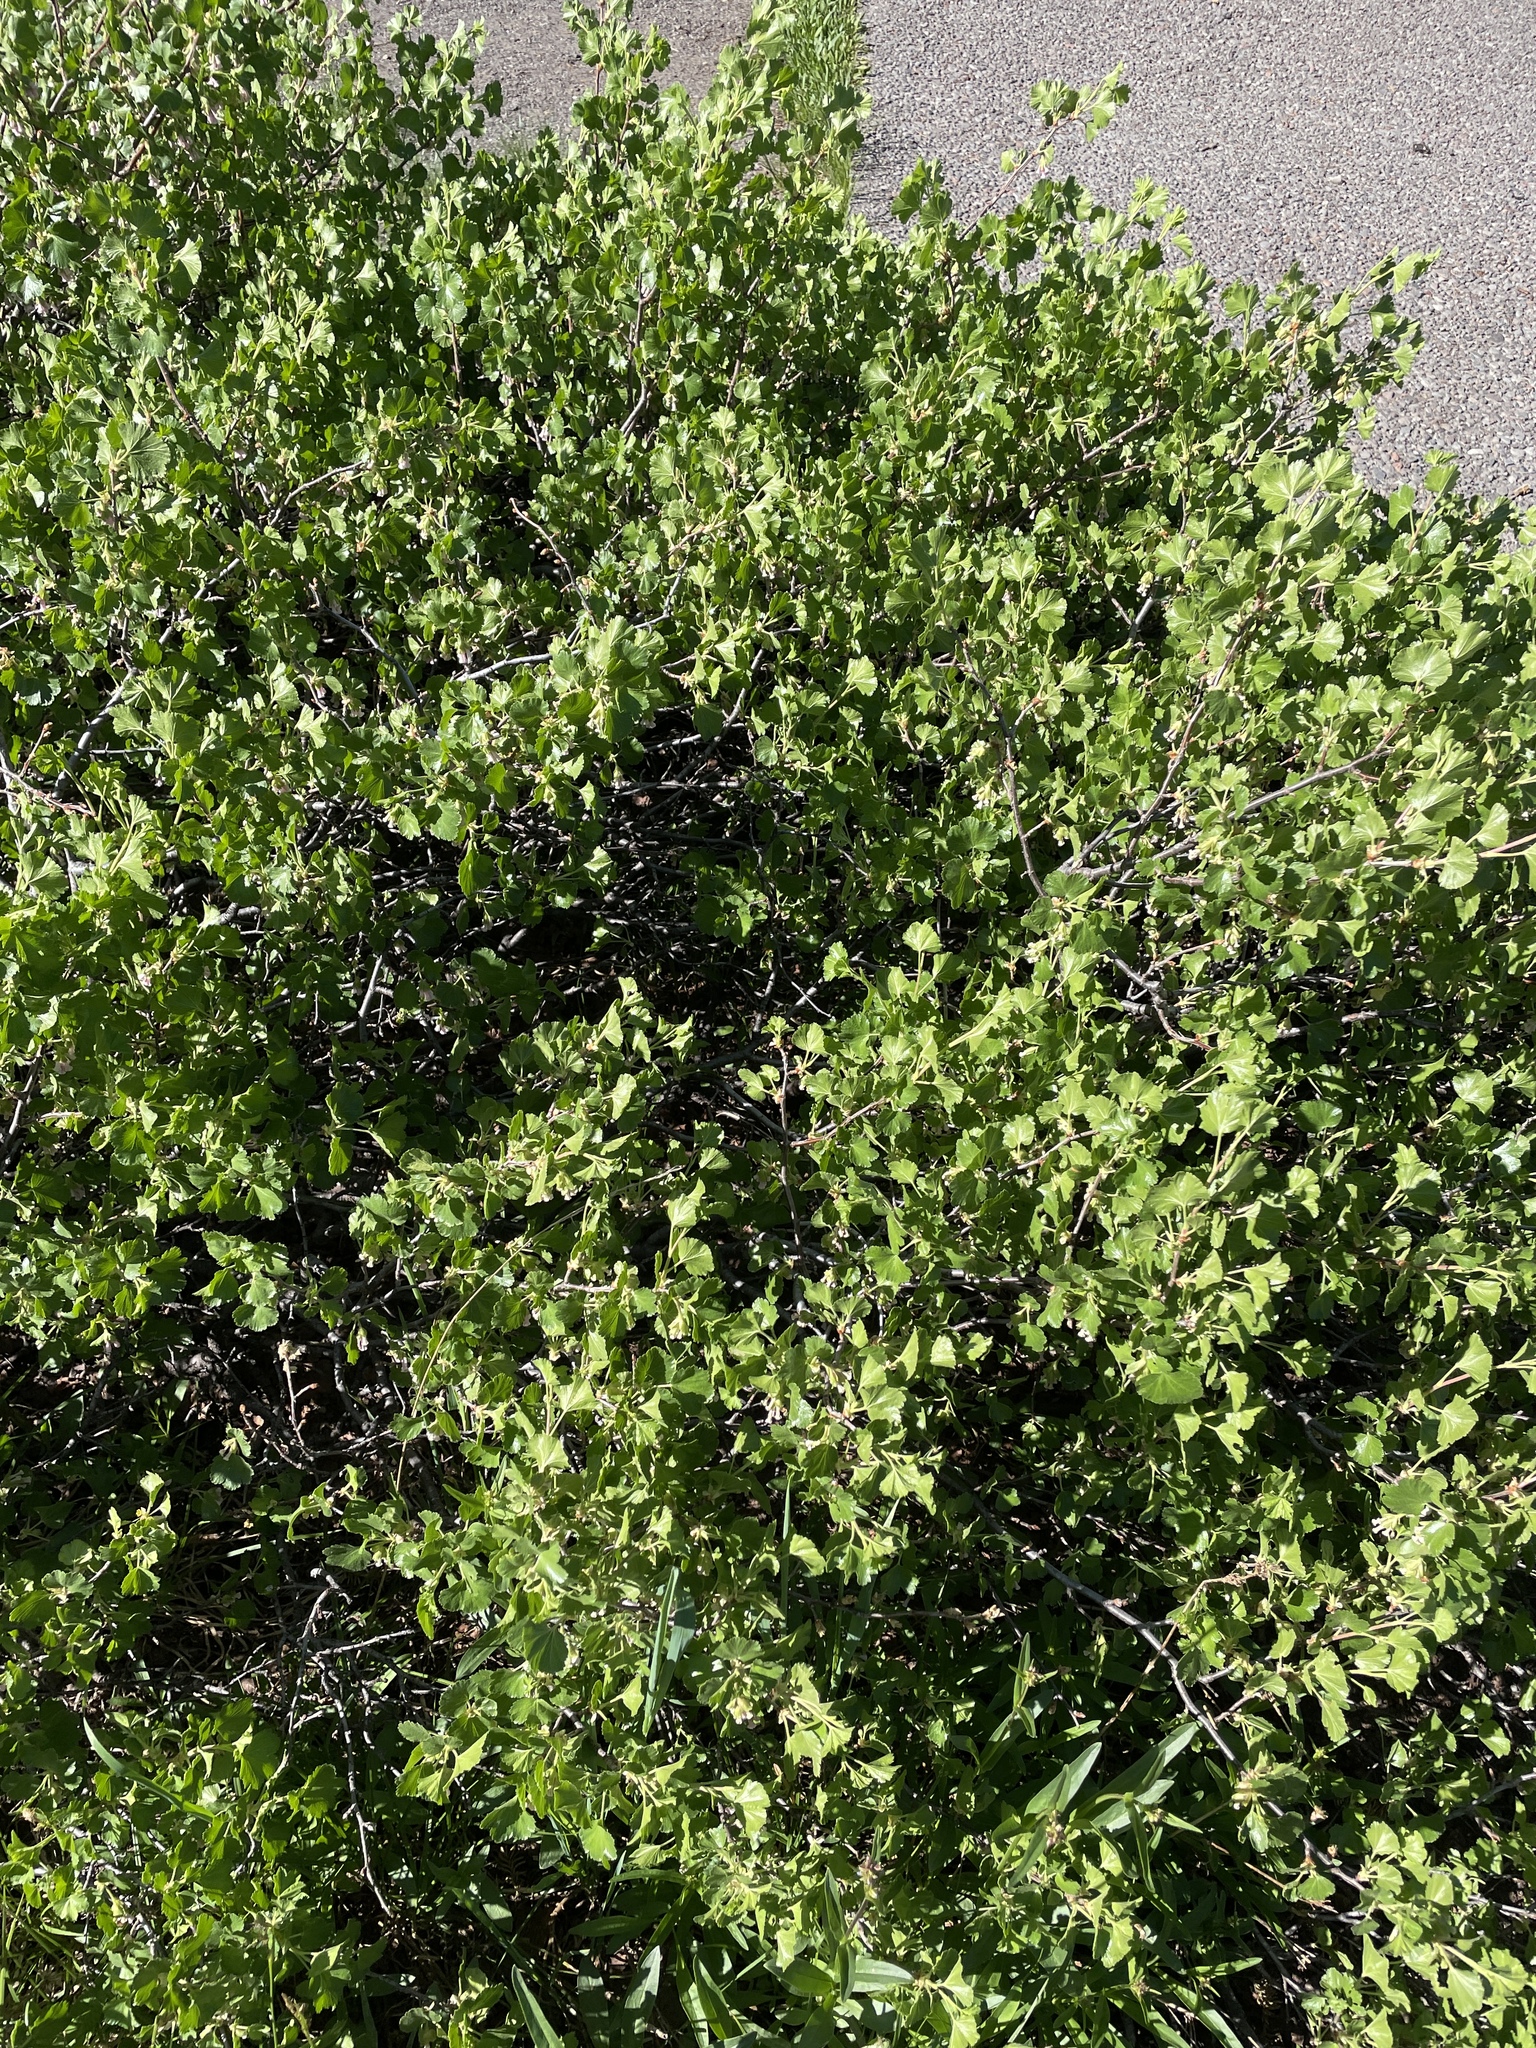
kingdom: Plantae
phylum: Tracheophyta
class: Magnoliopsida
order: Saxifragales
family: Grossulariaceae
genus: Ribes
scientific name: Ribes cereum
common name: Wax currant
